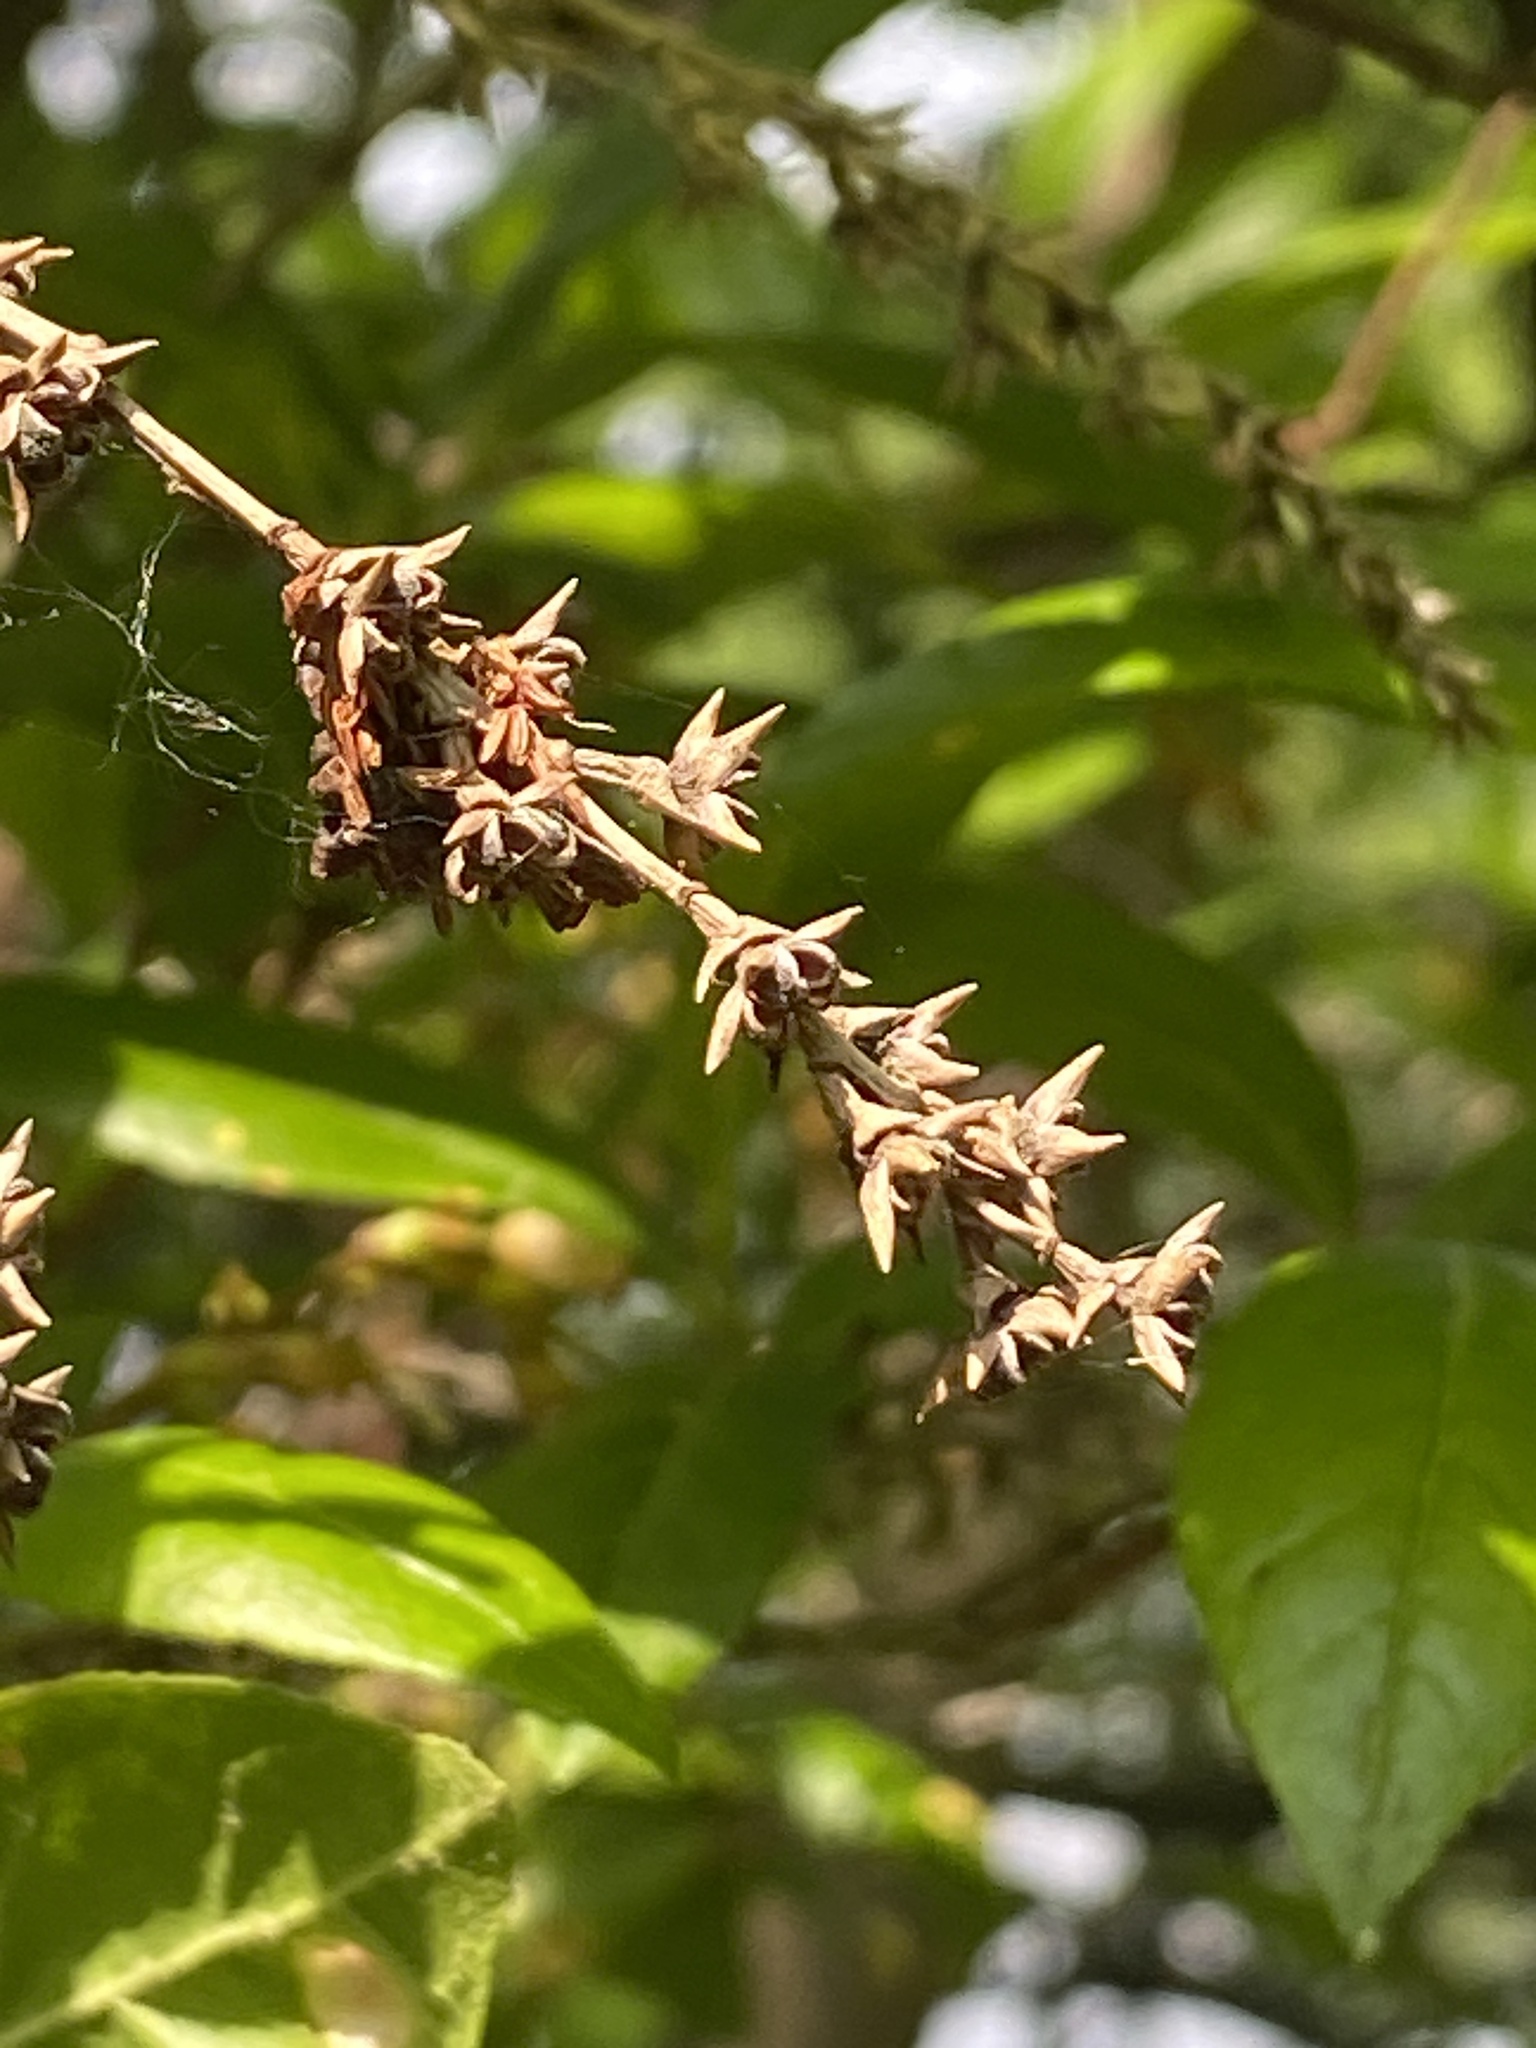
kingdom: Plantae
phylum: Tracheophyta
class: Magnoliopsida
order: Ericales
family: Ericaceae
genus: Eubotrys
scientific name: Eubotrys racemosa
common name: Fetterbush
